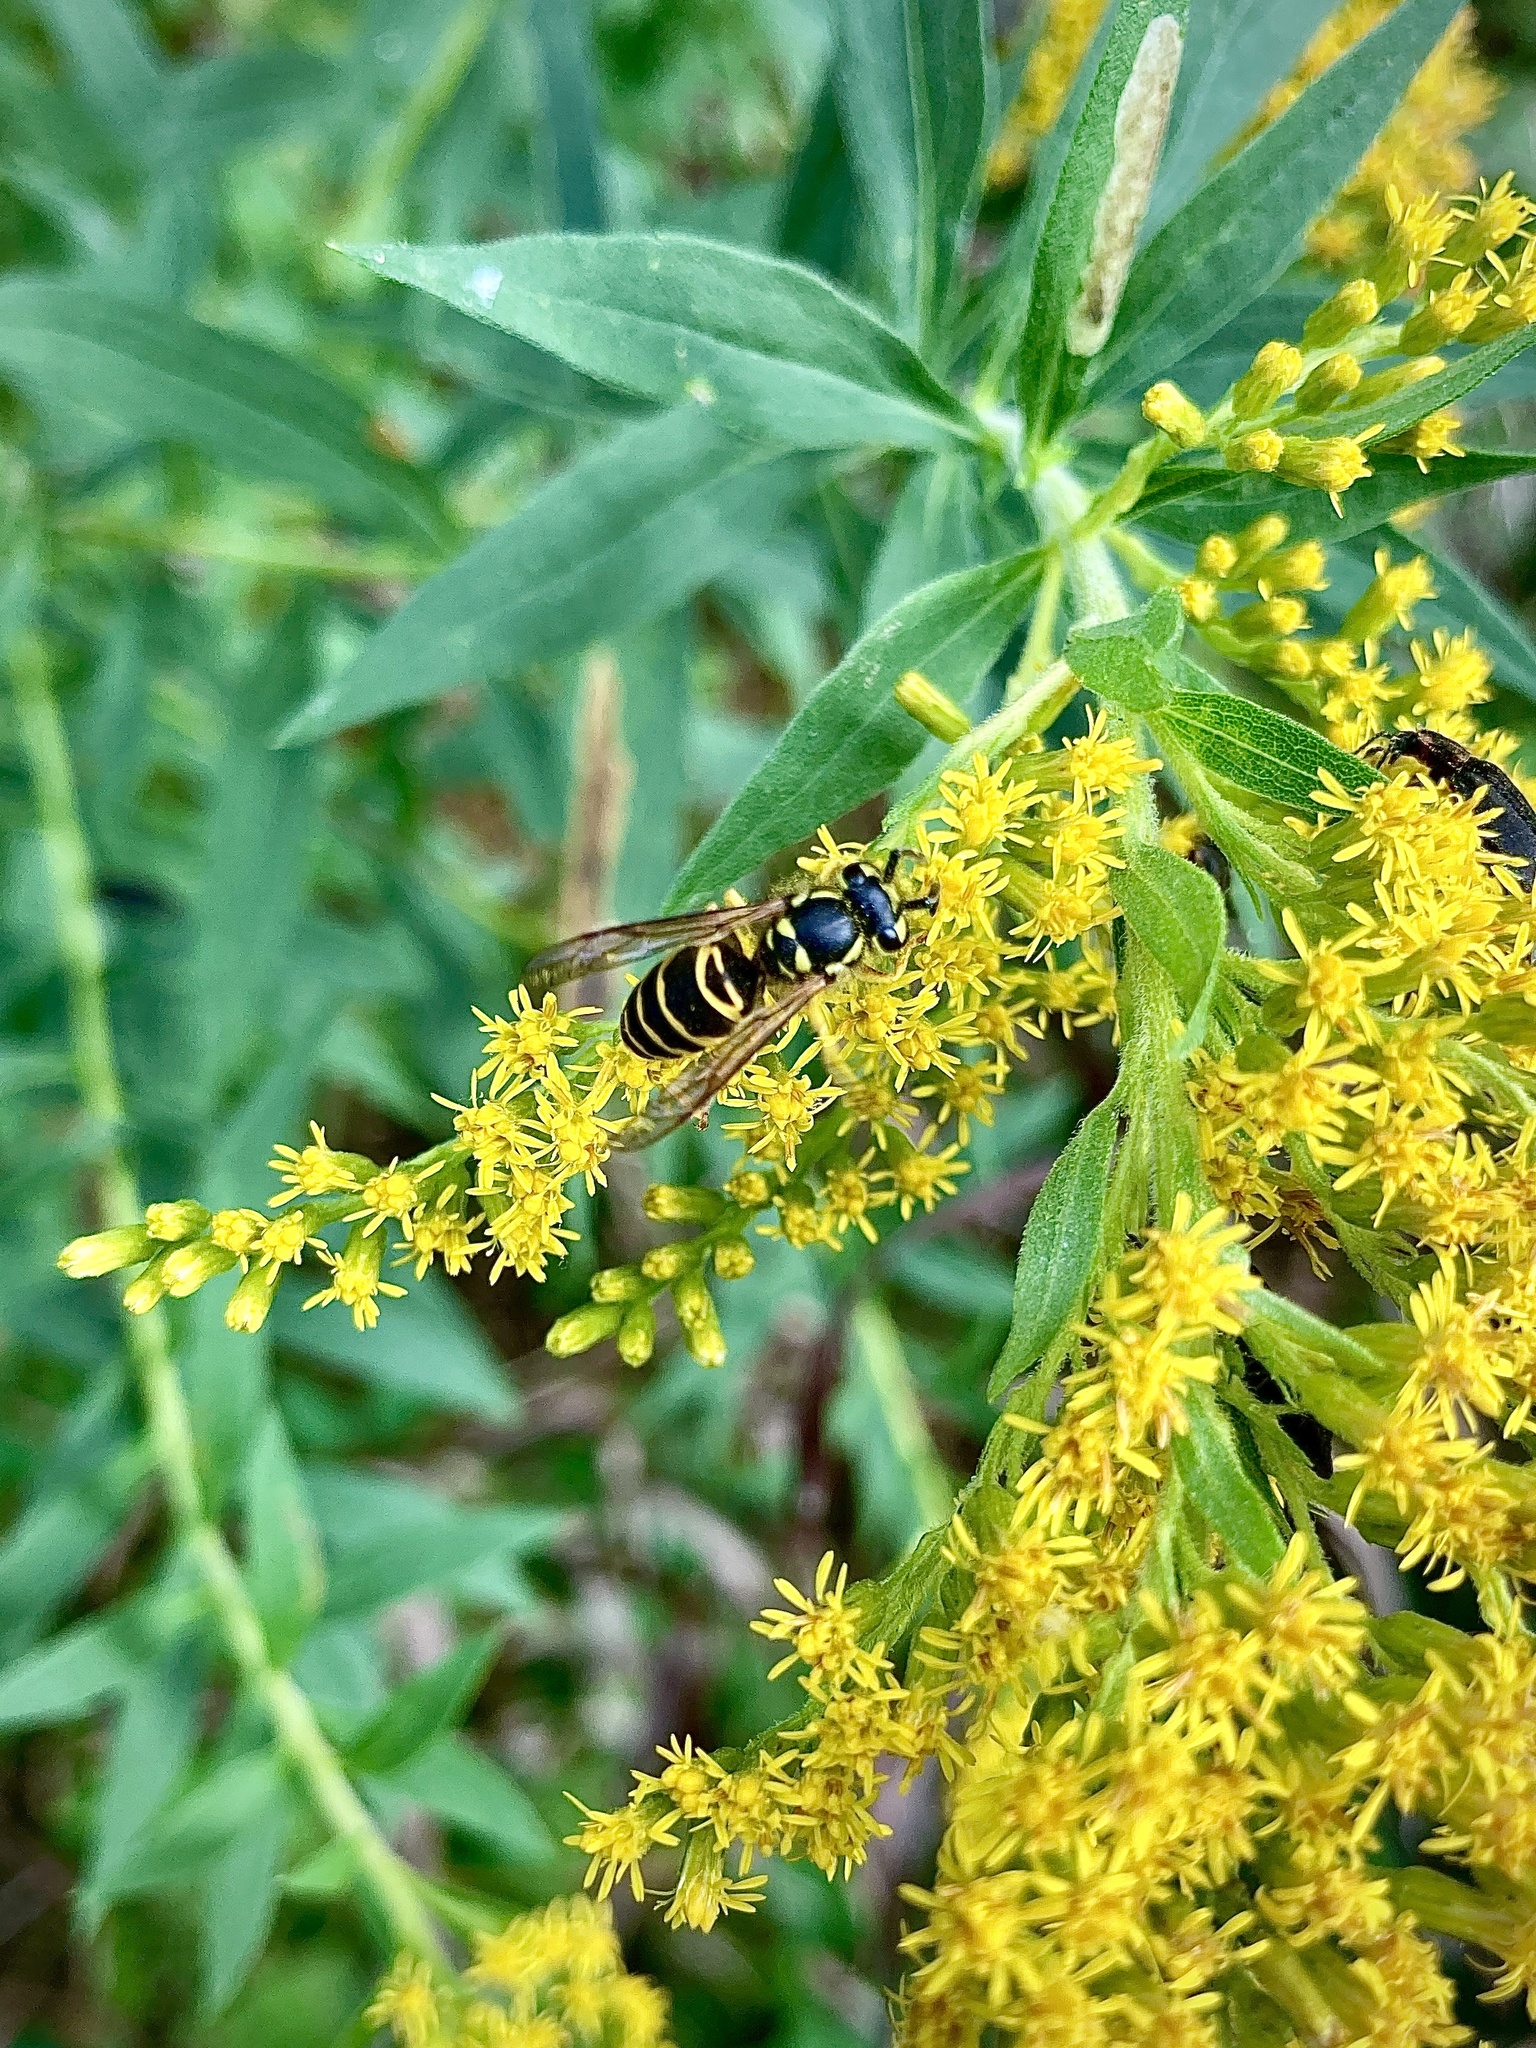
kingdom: Animalia
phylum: Arthropoda
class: Insecta
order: Hymenoptera
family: Vespidae
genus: Vespula
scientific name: Vespula maculifrons
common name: Eastern yellowjacket
